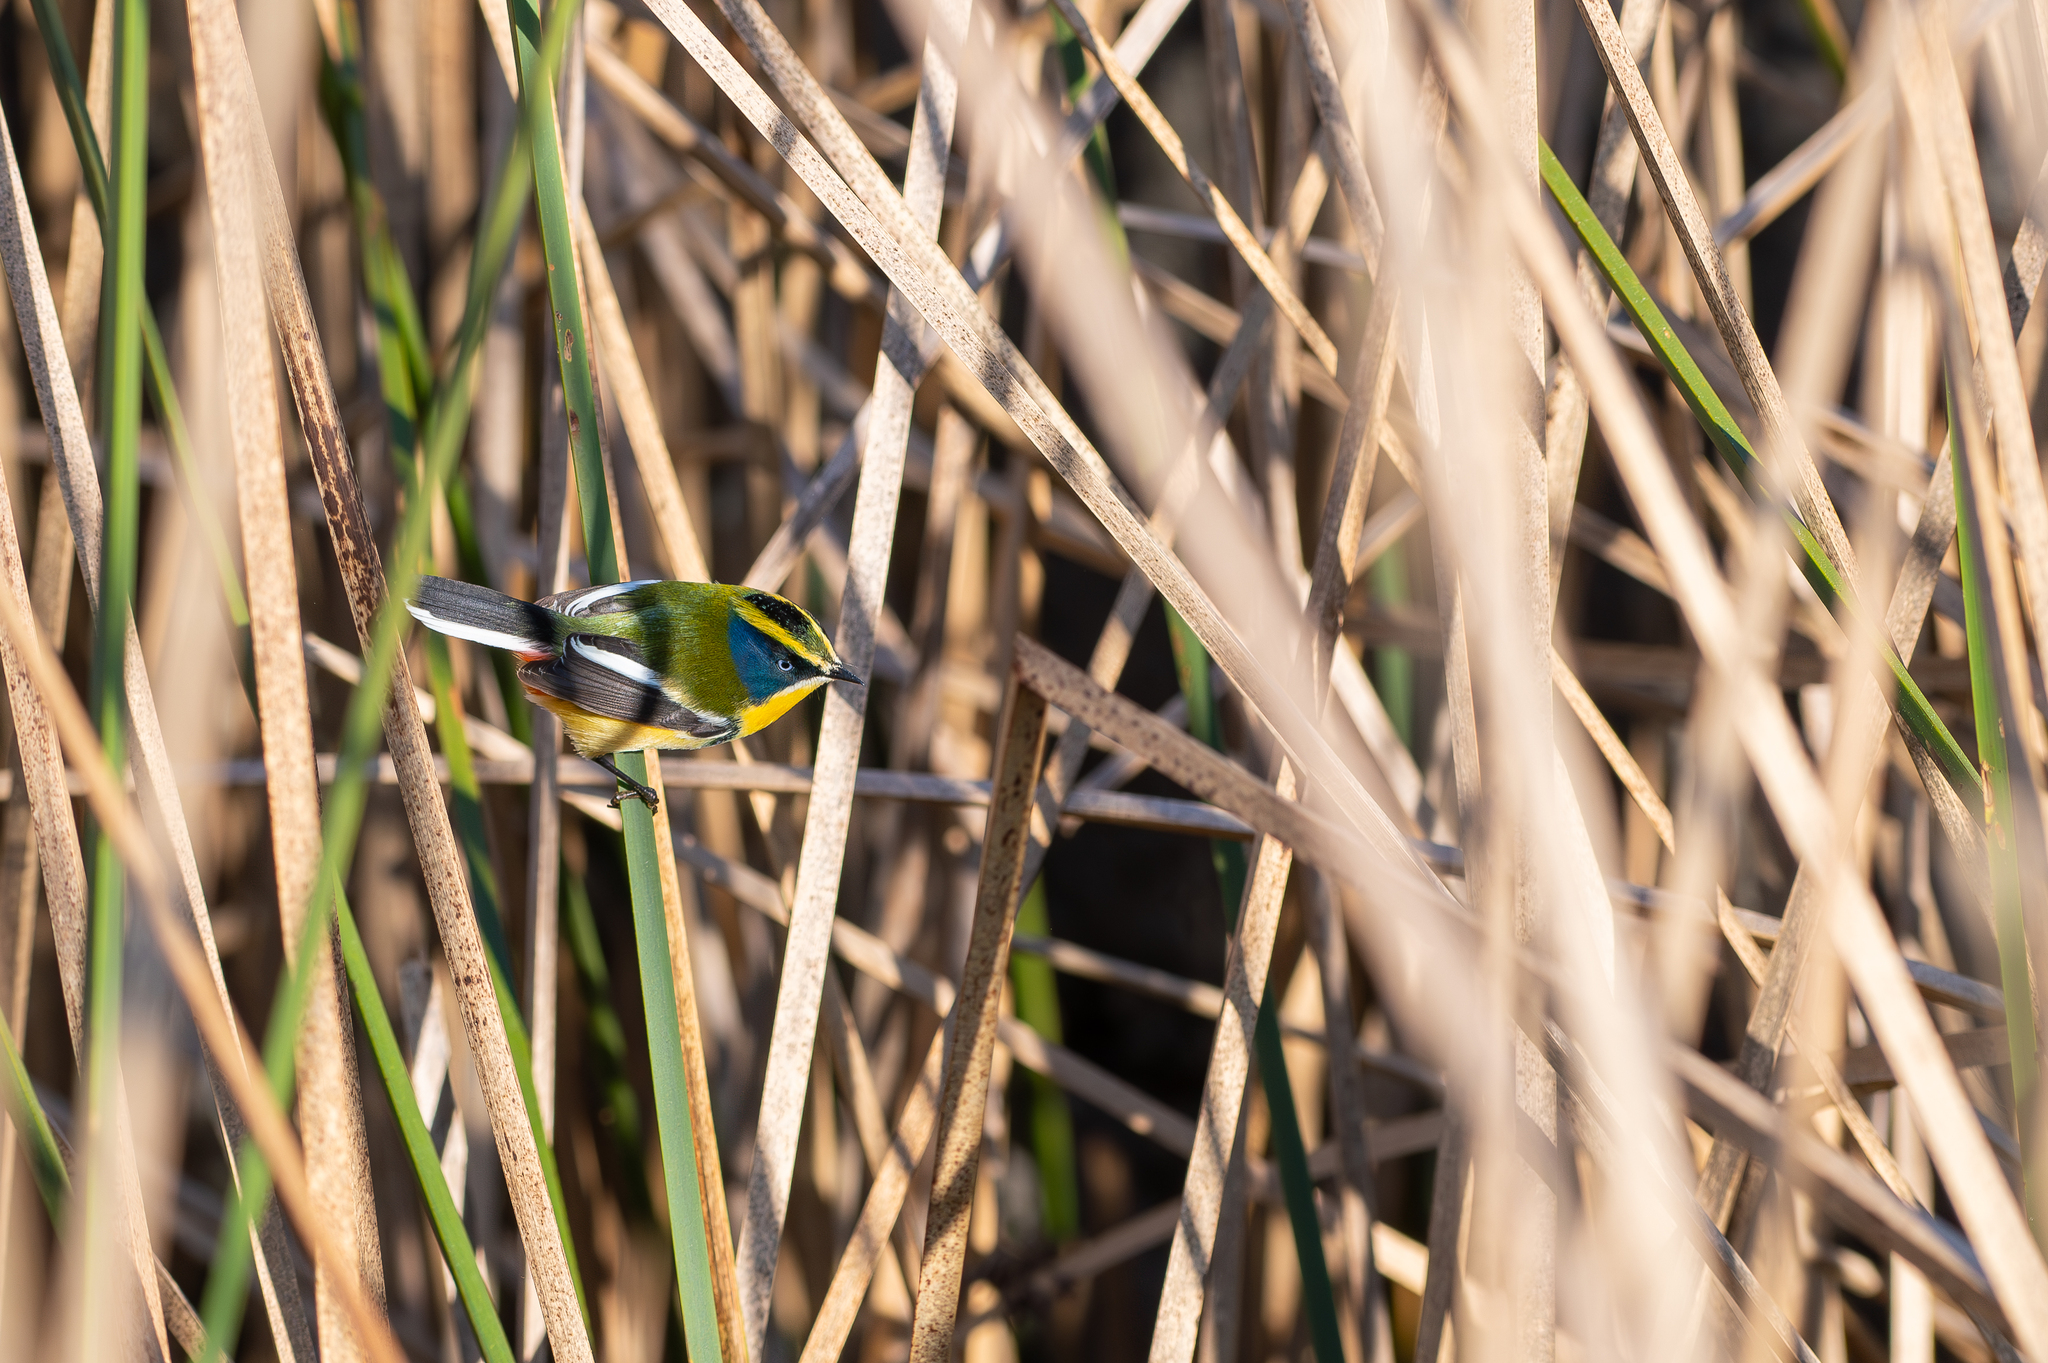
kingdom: Animalia
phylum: Chordata
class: Aves
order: Passeriformes
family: Tyrannidae
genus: Tachuris
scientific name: Tachuris rubrigastra
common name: Many-colored rush tyrant
